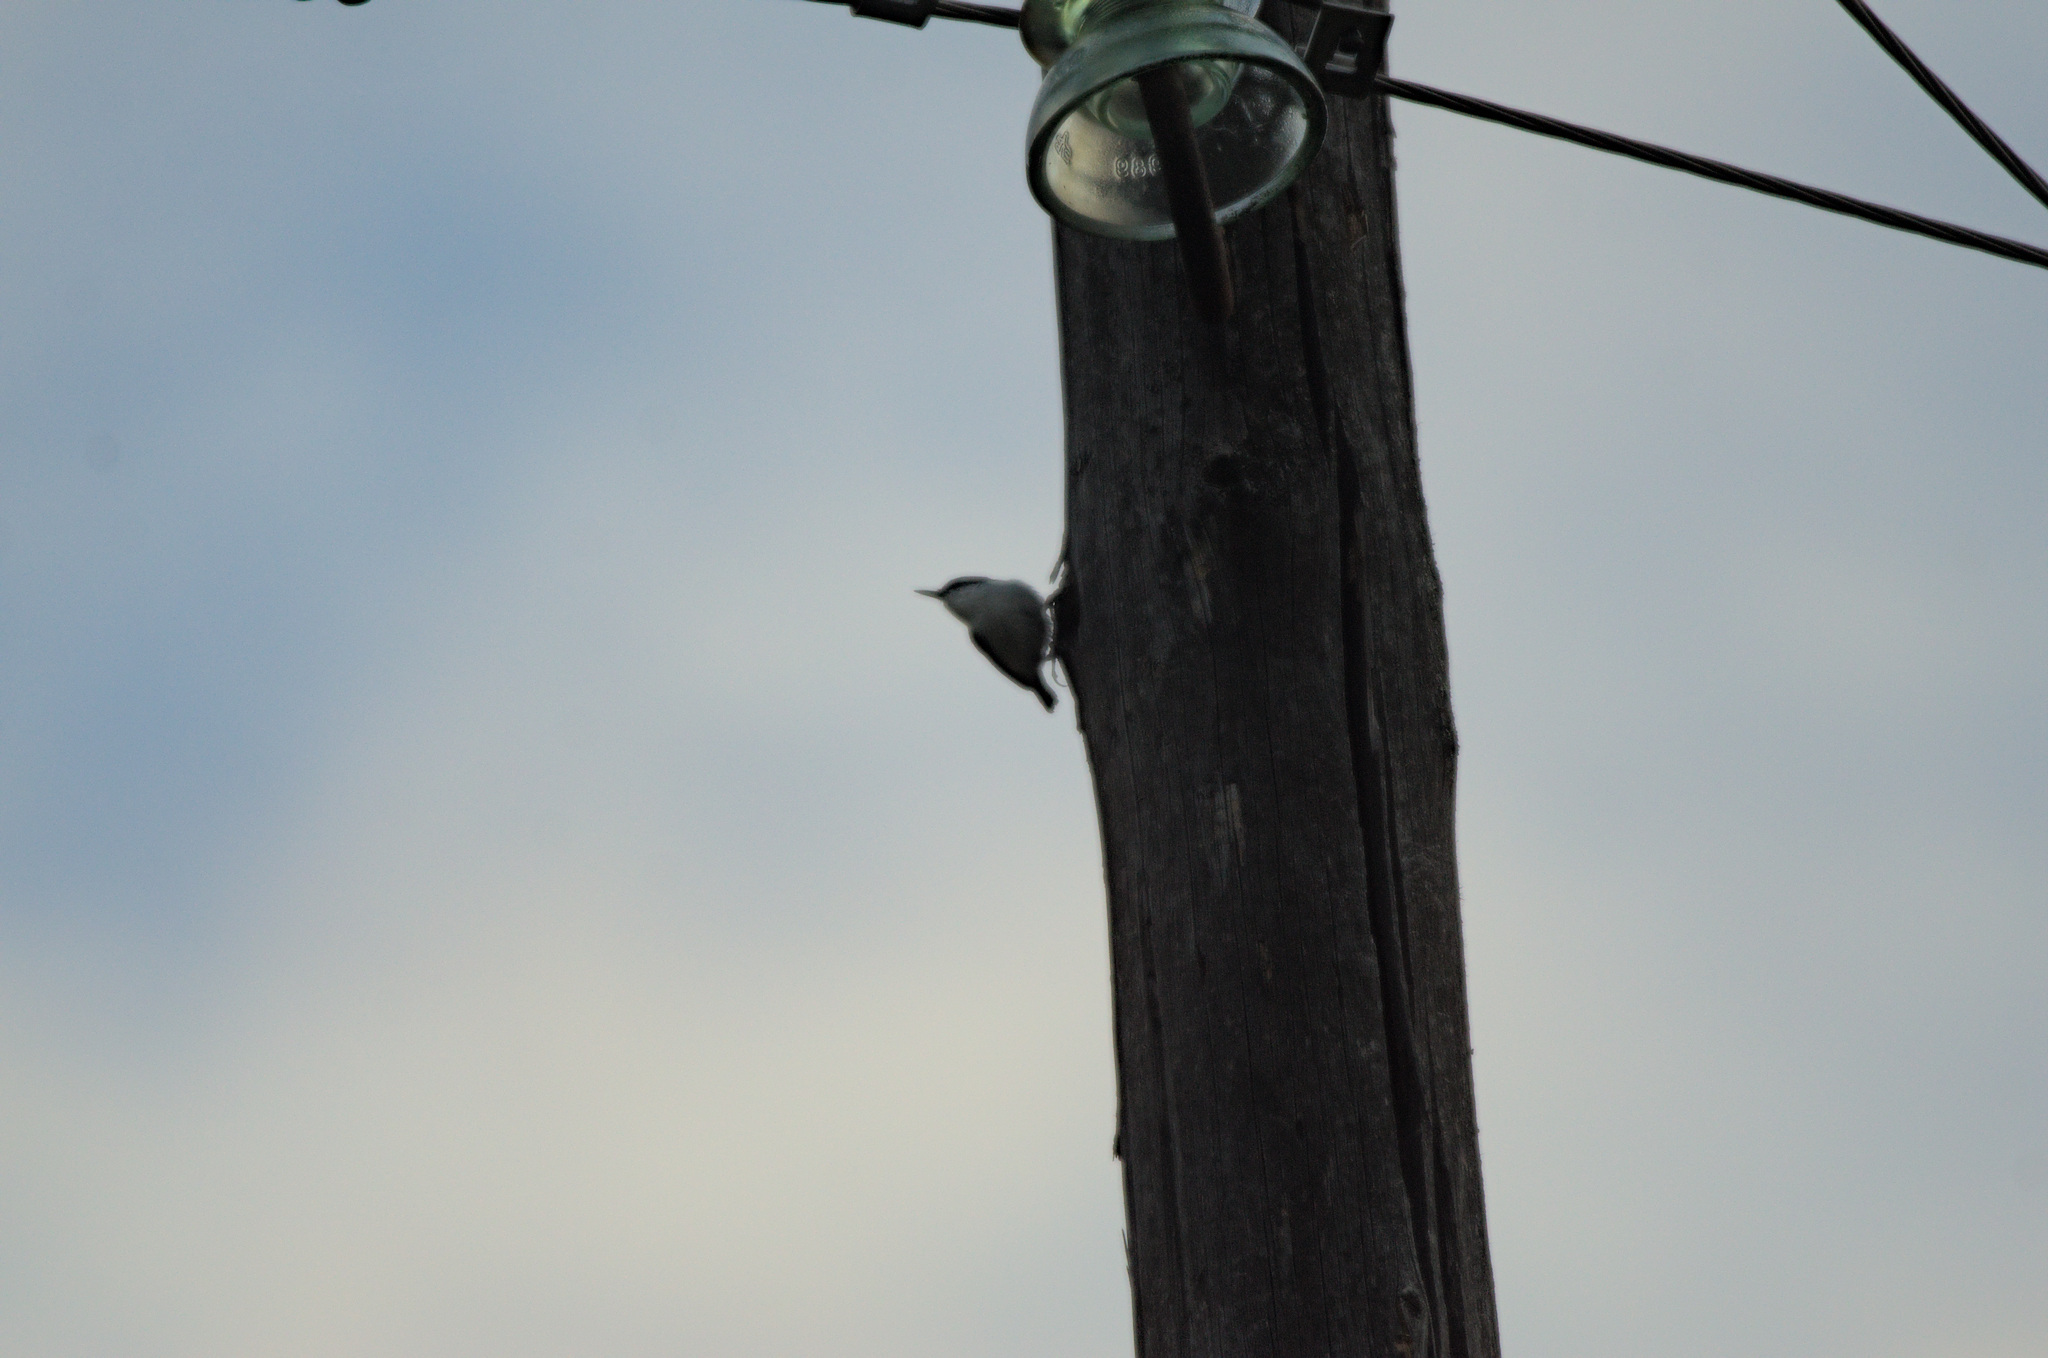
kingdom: Animalia
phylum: Chordata
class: Aves
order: Passeriformes
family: Sittidae
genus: Sitta
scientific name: Sitta europaea
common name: Eurasian nuthatch
